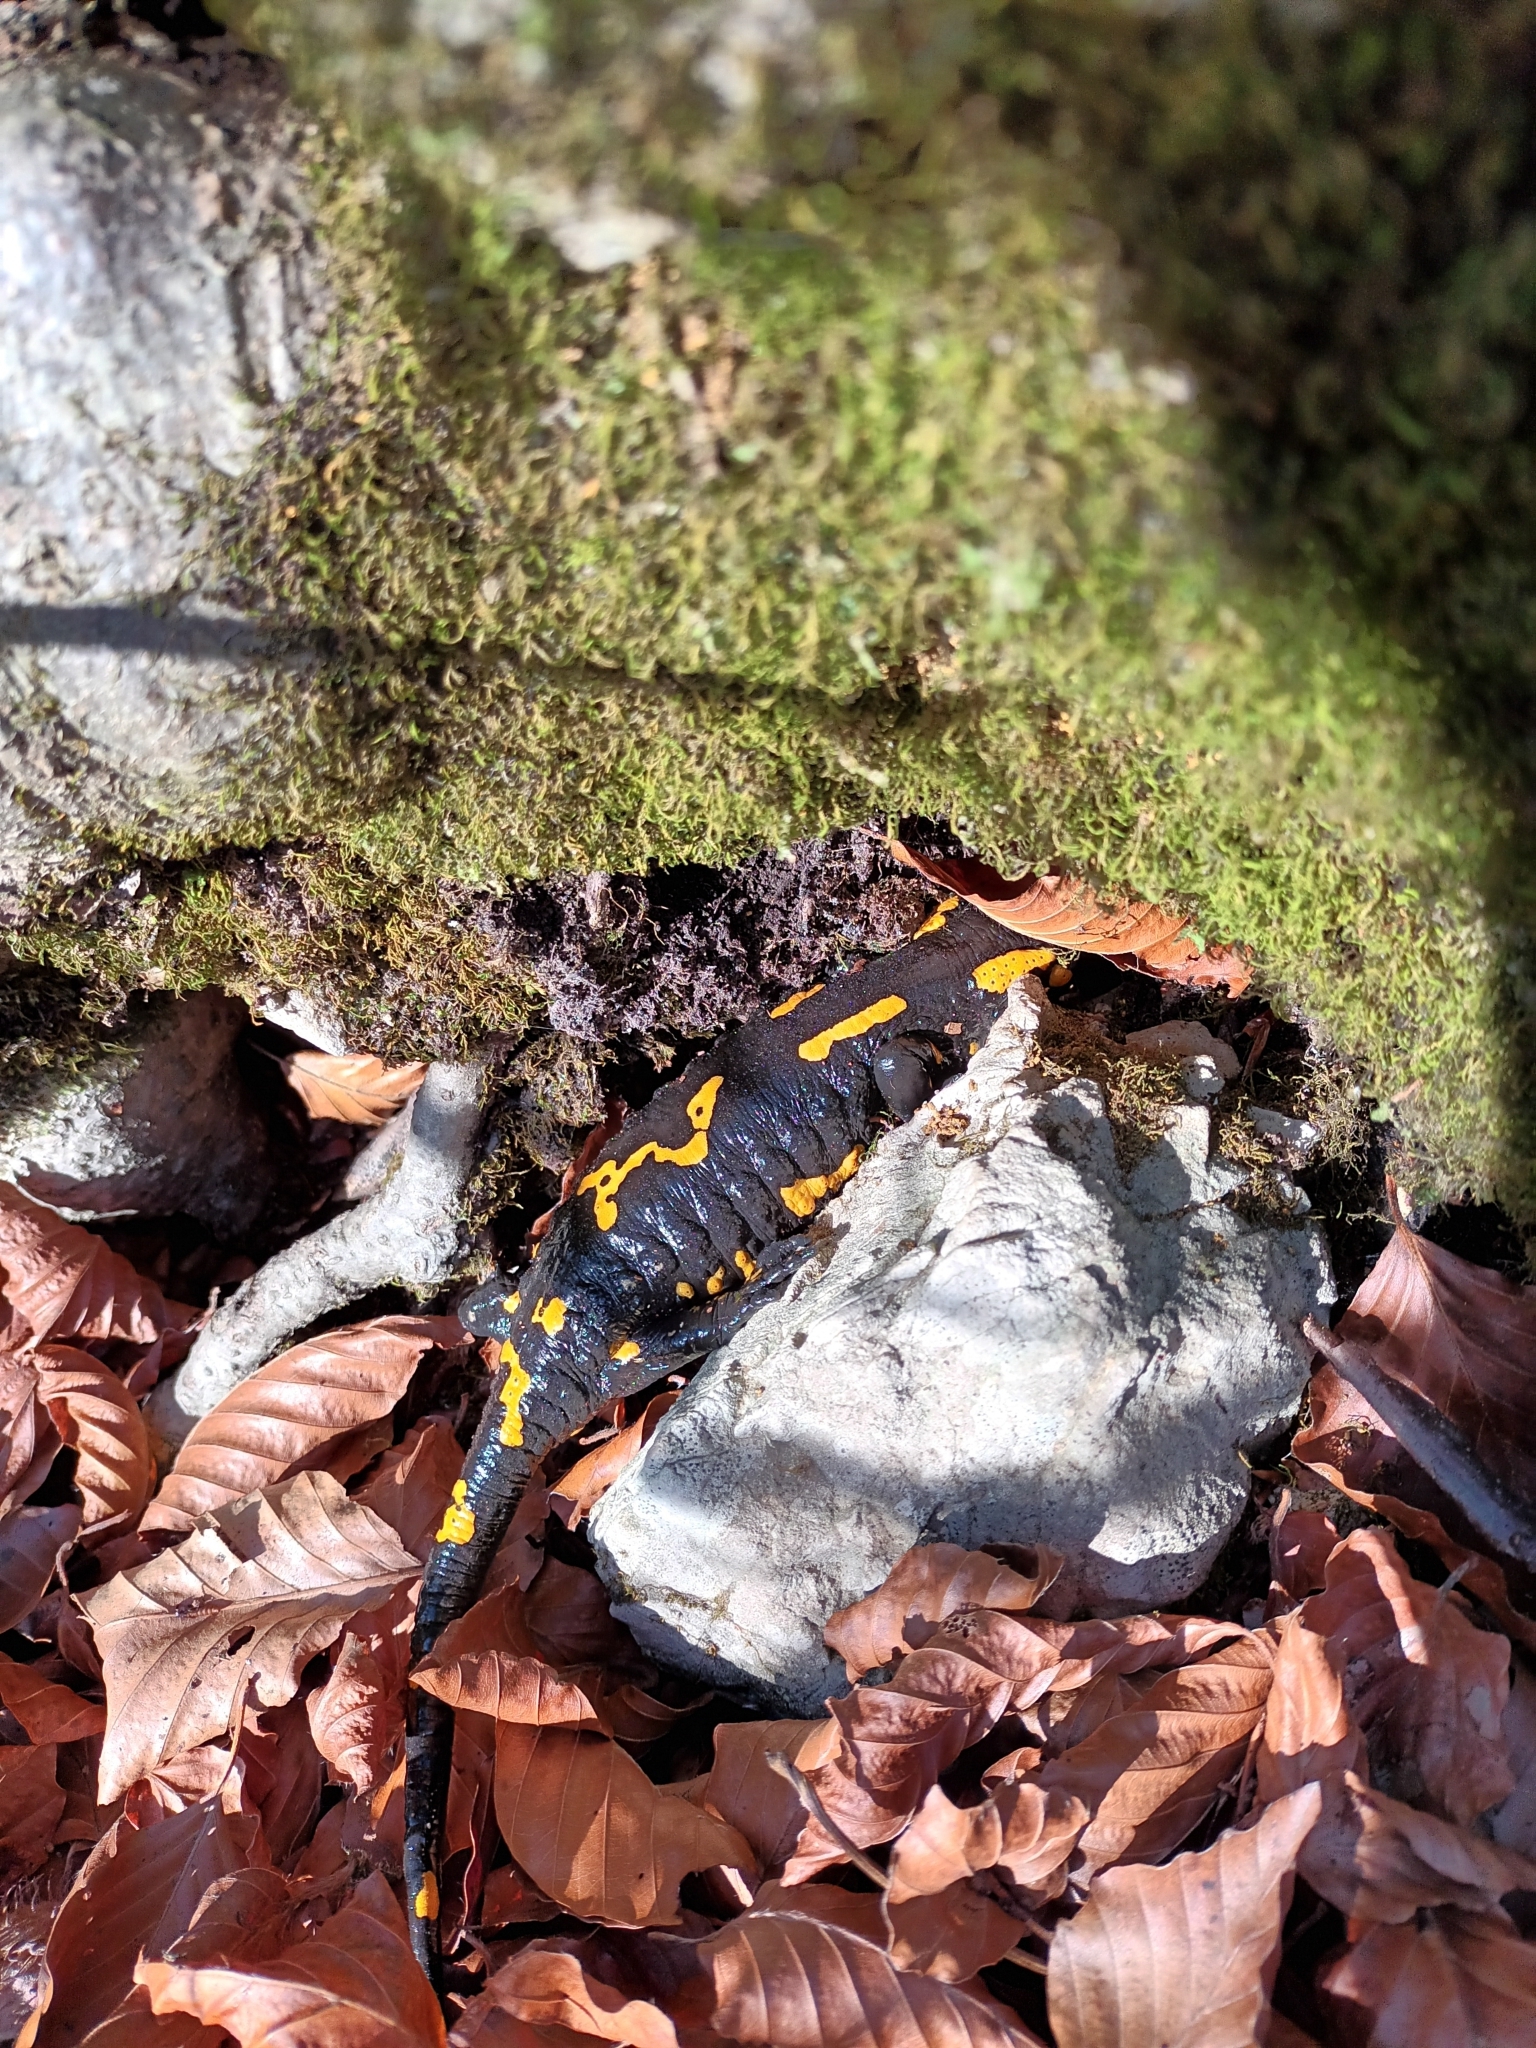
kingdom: Animalia
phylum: Chordata
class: Amphibia
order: Caudata
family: Salamandridae
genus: Salamandra
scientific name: Salamandra salamandra
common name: Fire salamander
